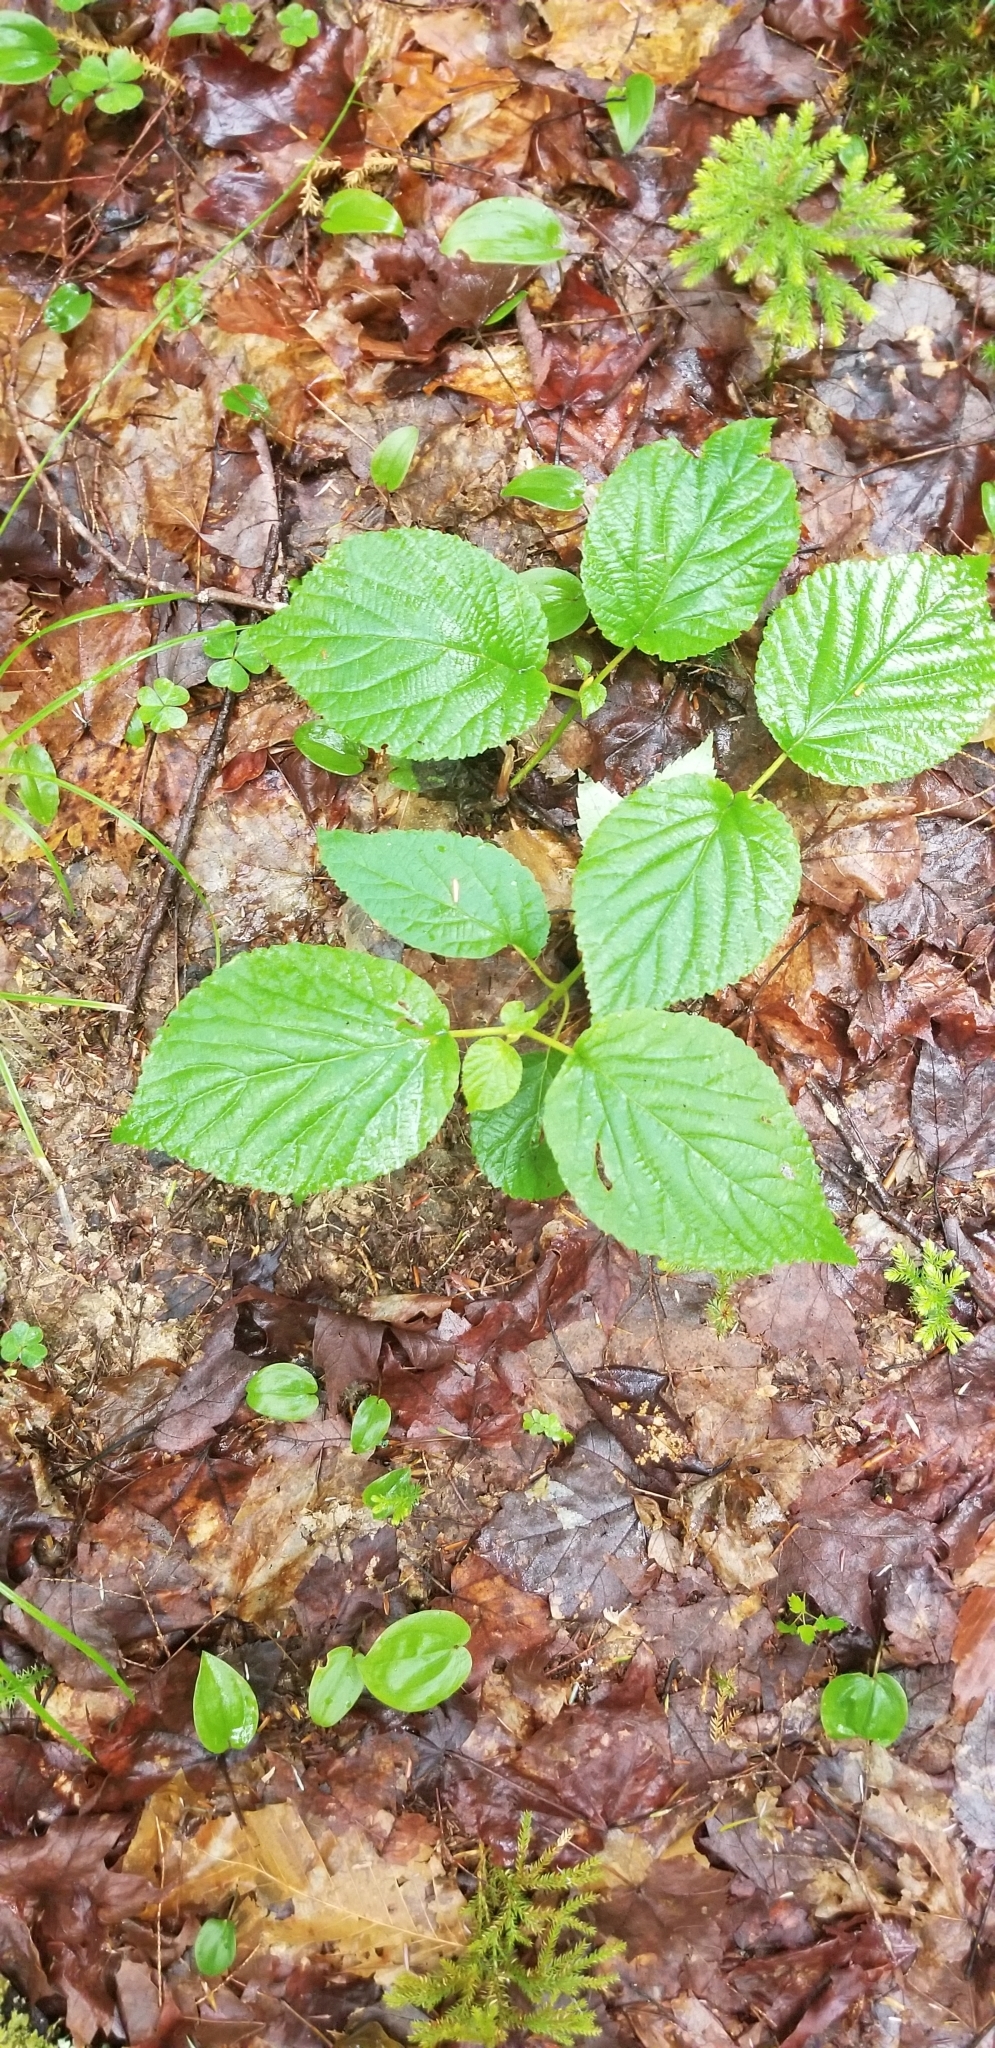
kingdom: Plantae
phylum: Tracheophyta
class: Magnoliopsida
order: Dipsacales
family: Viburnaceae
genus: Viburnum
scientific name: Viburnum lantanoides
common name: Hobblebush
